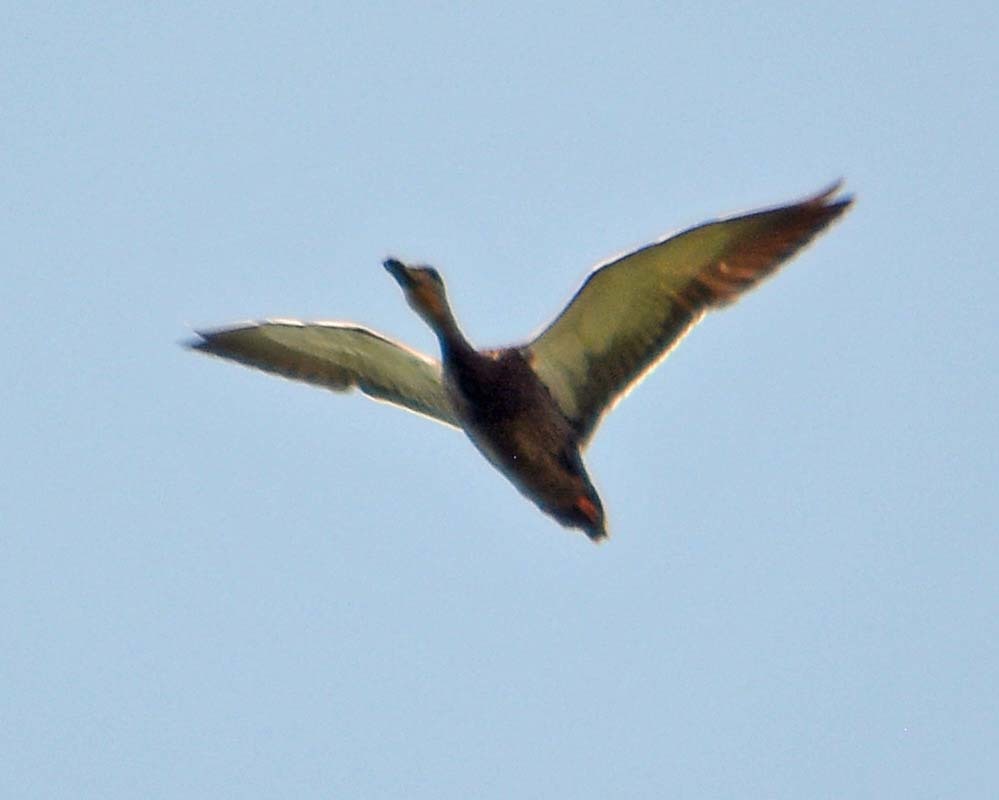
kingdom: Animalia
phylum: Chordata
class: Aves
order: Anseriformes
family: Anatidae
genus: Anas
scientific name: Anas diazi
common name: Mexican duck
